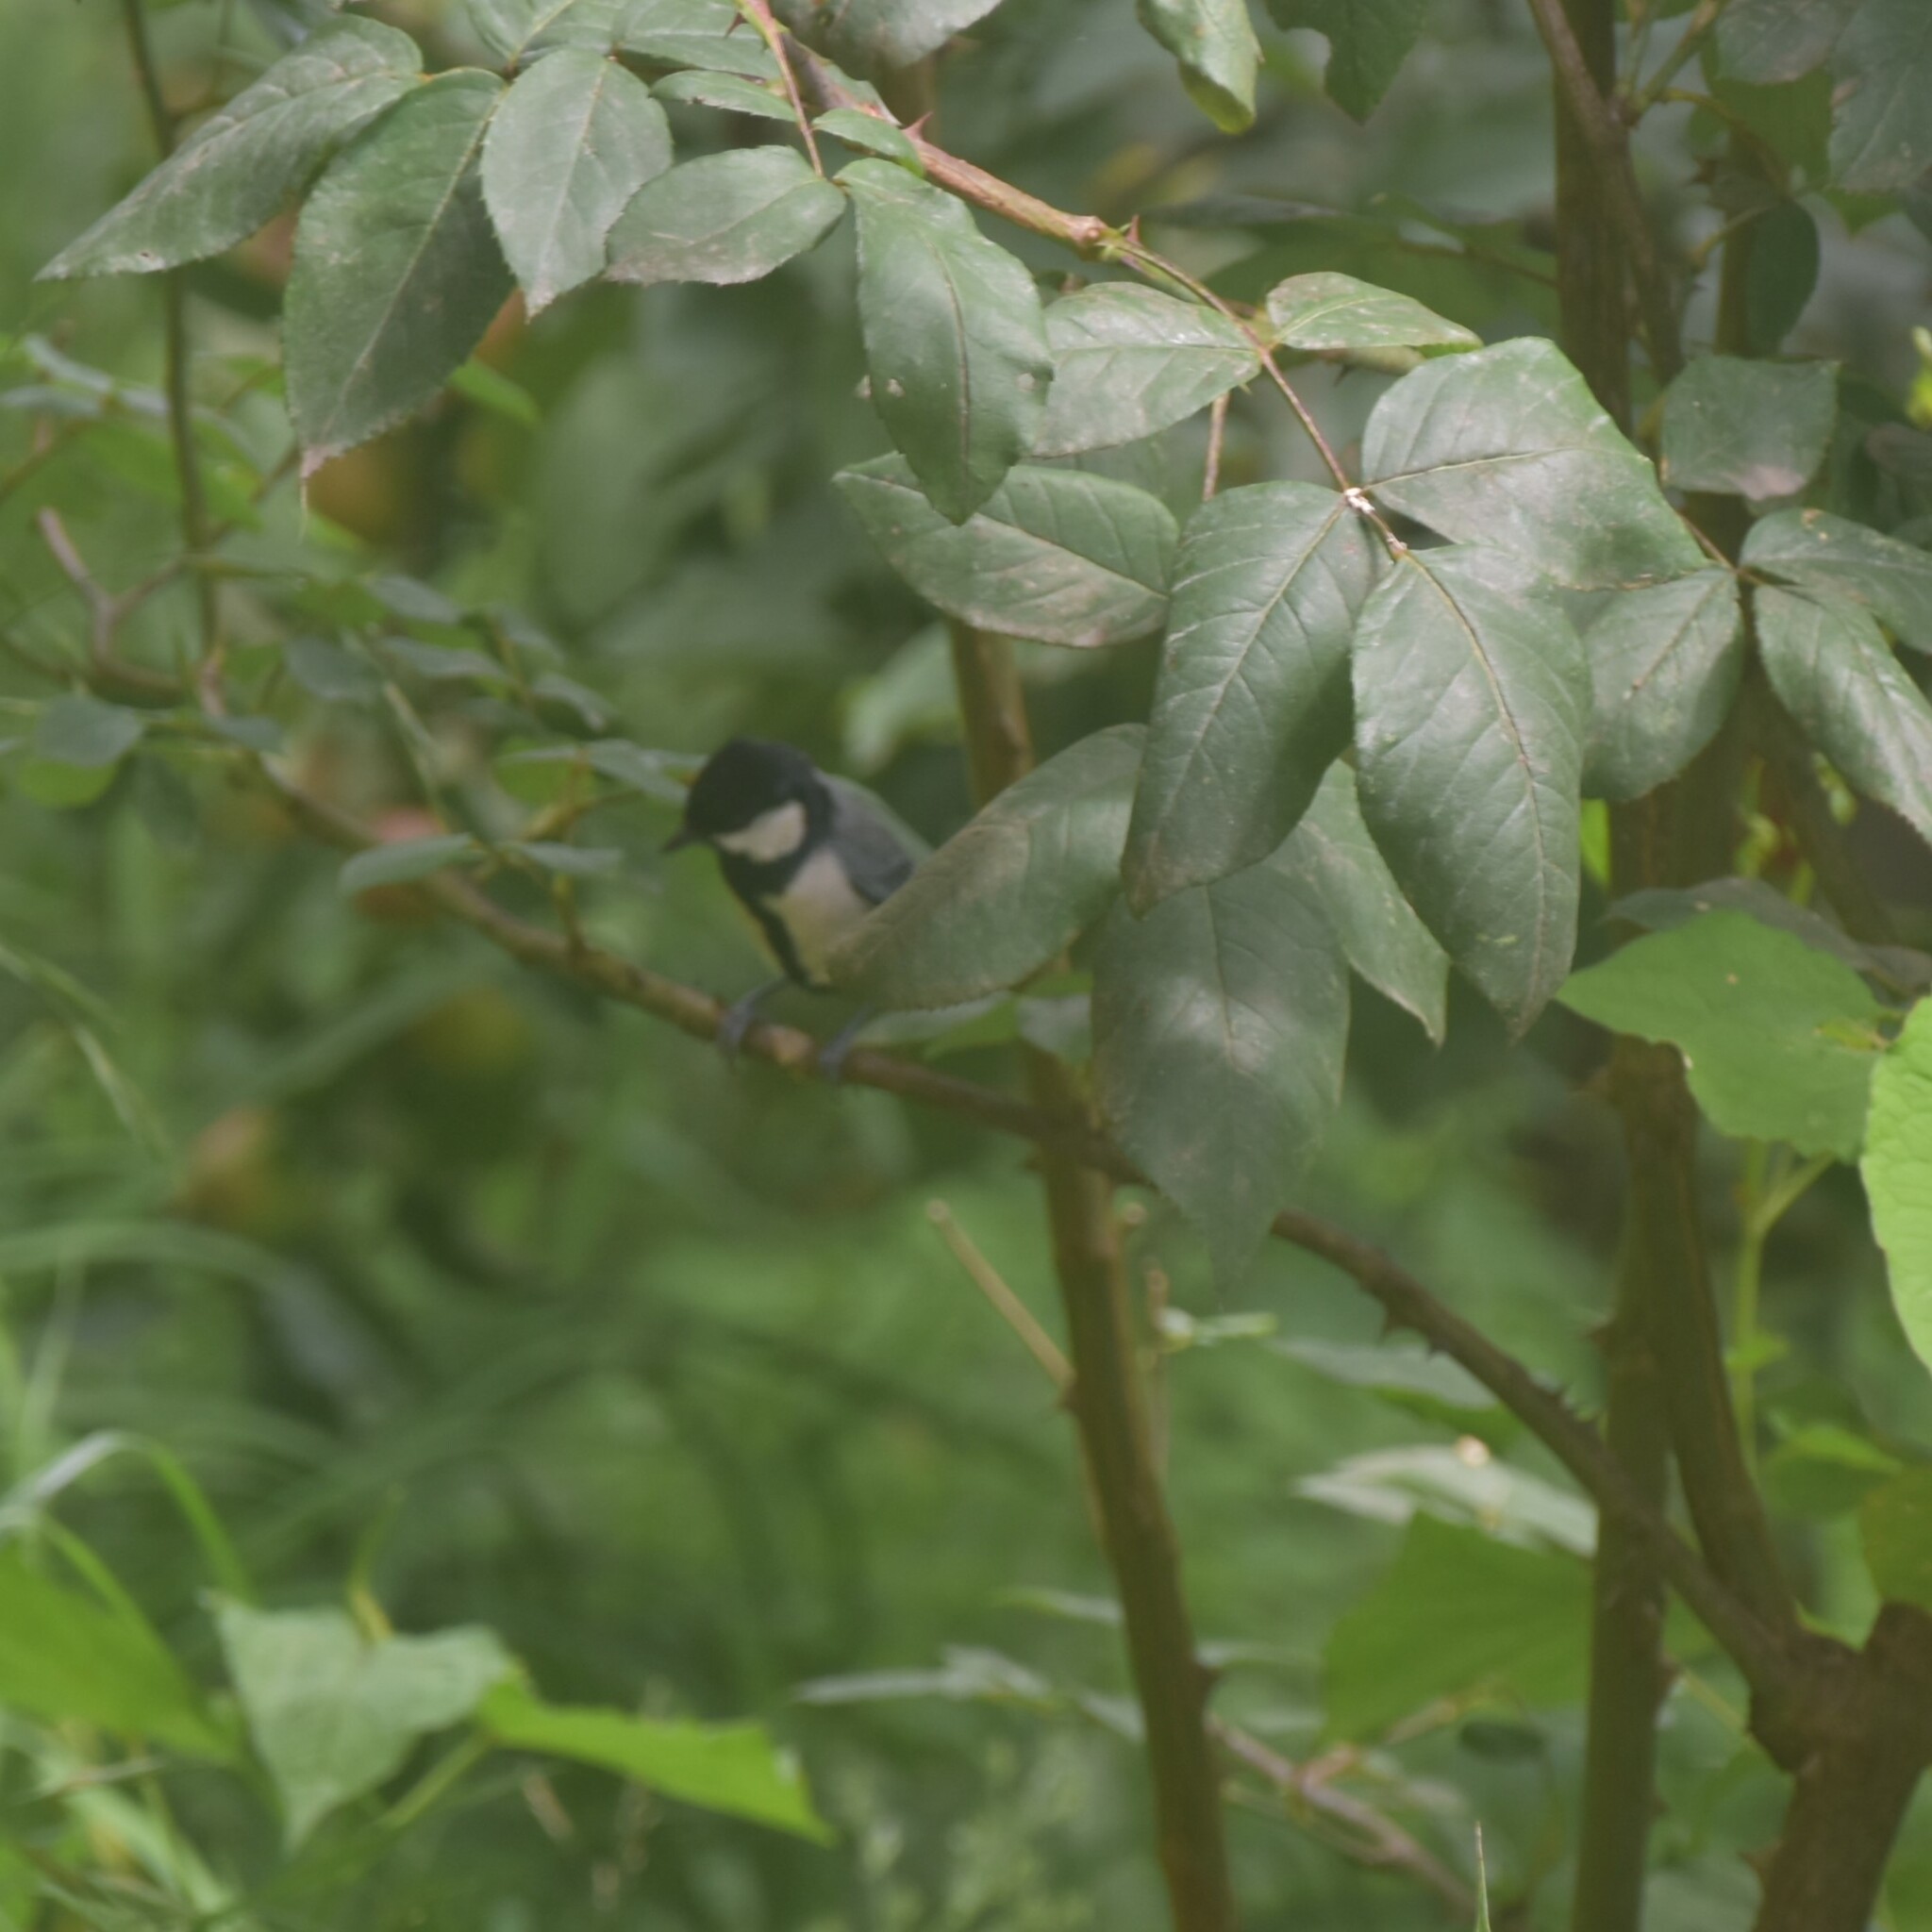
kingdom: Animalia
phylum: Chordata
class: Aves
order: Passeriformes
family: Paridae
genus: Parus
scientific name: Parus cinereus
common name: Cinereous tit
